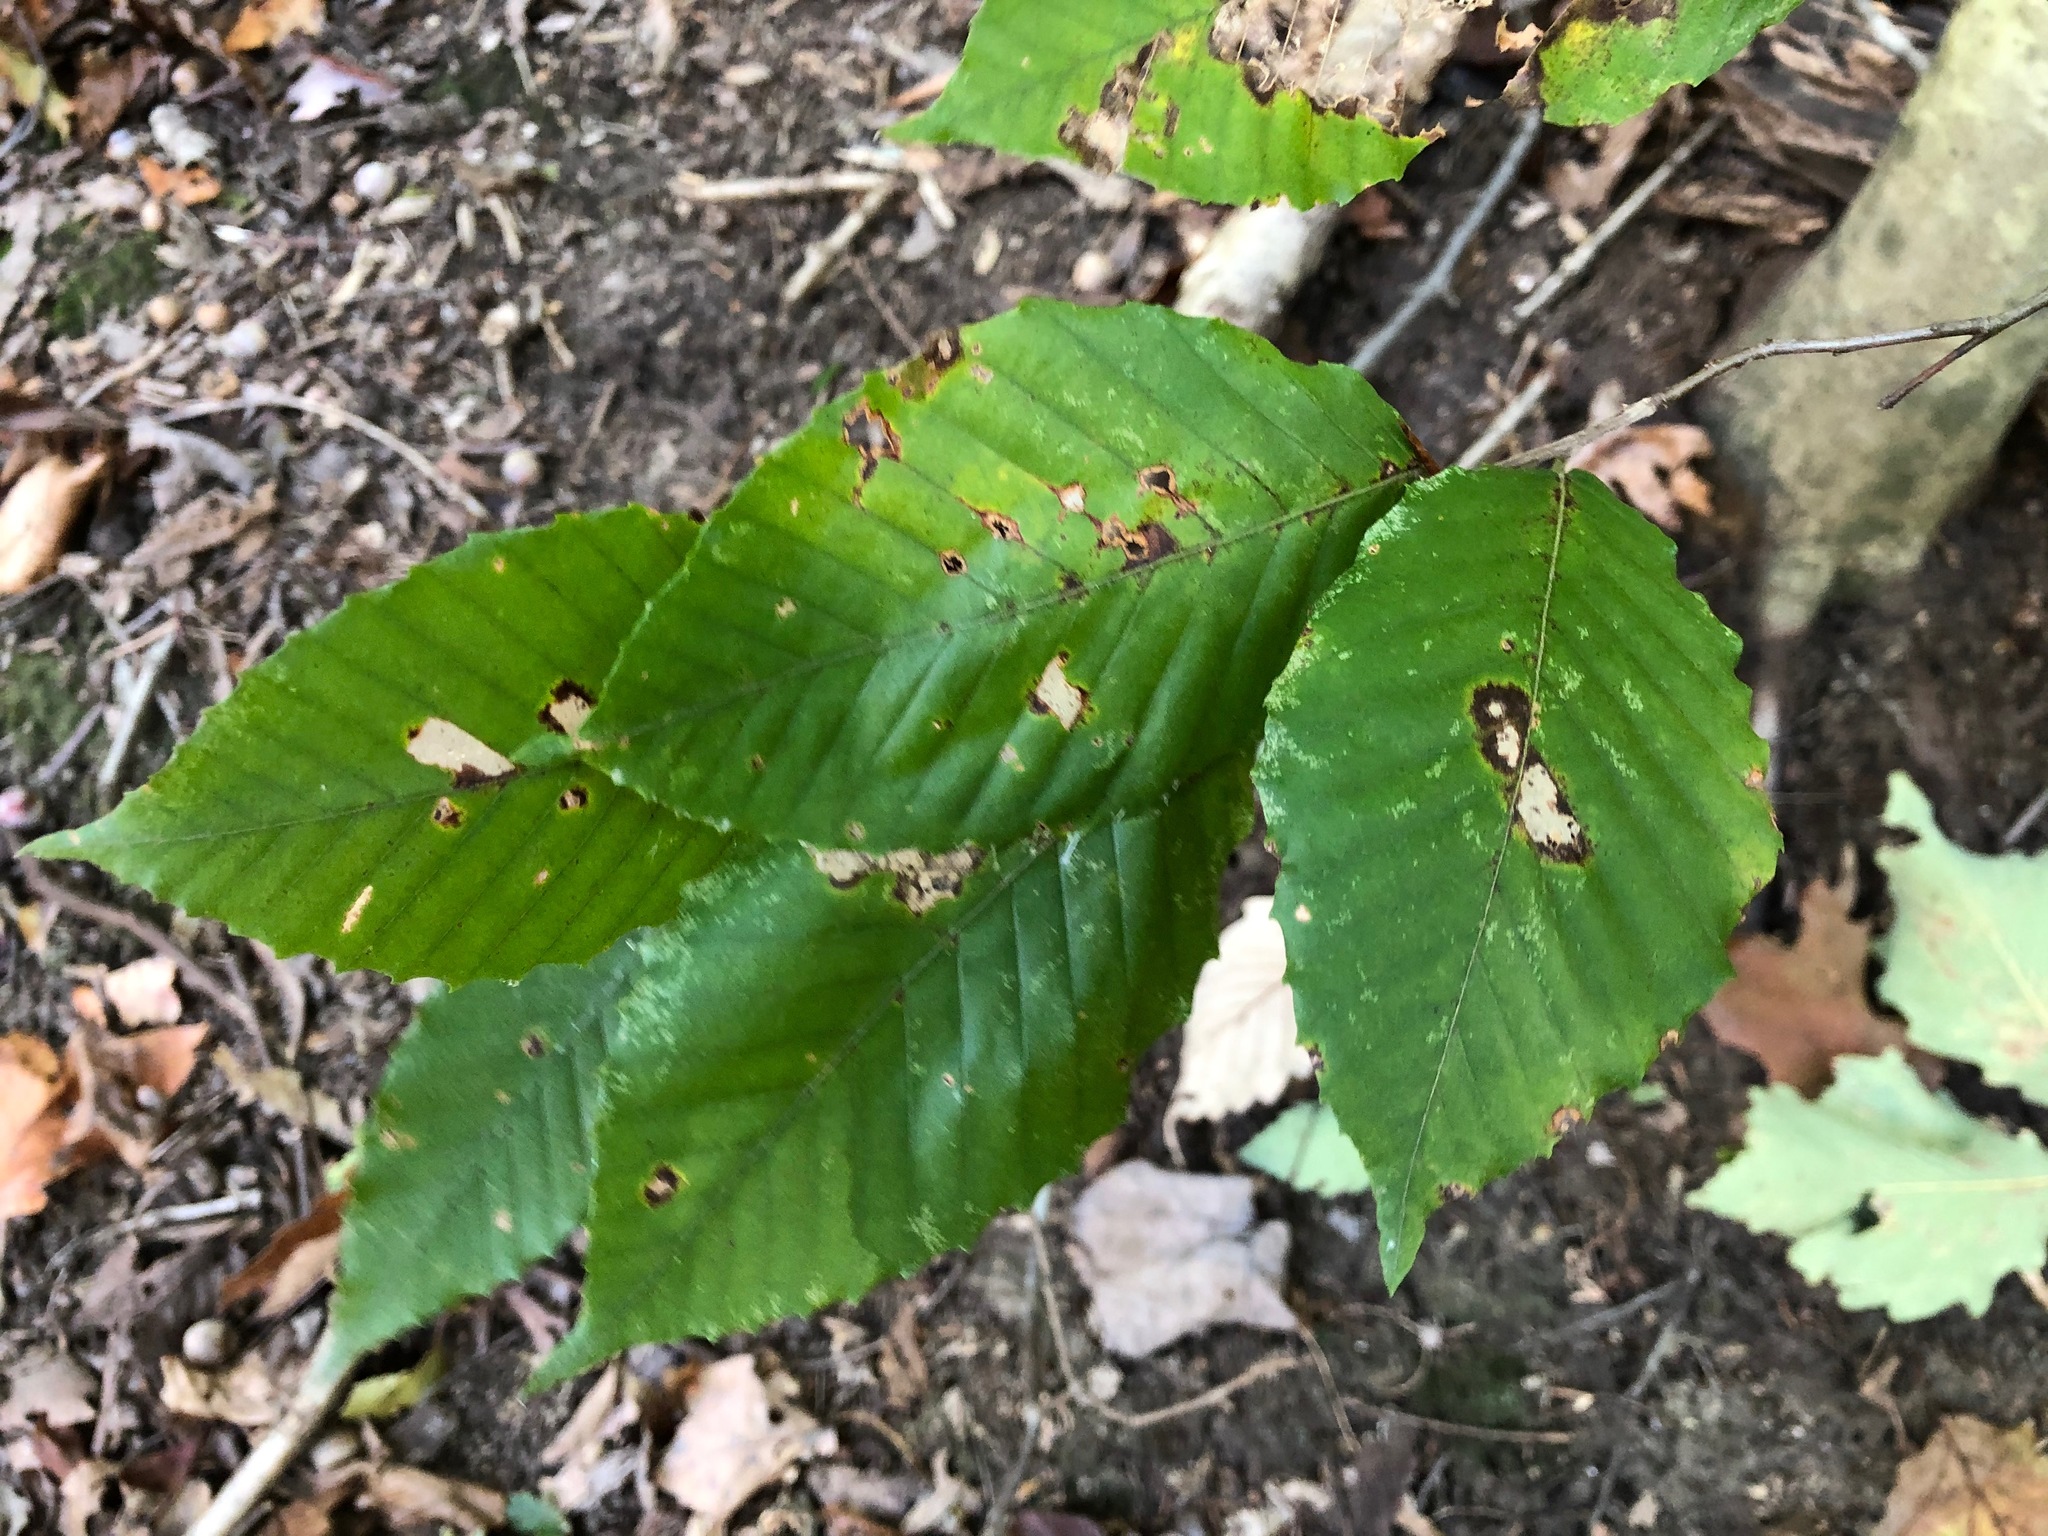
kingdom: Plantae
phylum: Tracheophyta
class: Magnoliopsida
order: Fagales
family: Fagaceae
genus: Fagus
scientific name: Fagus grandifolia
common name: American beech
